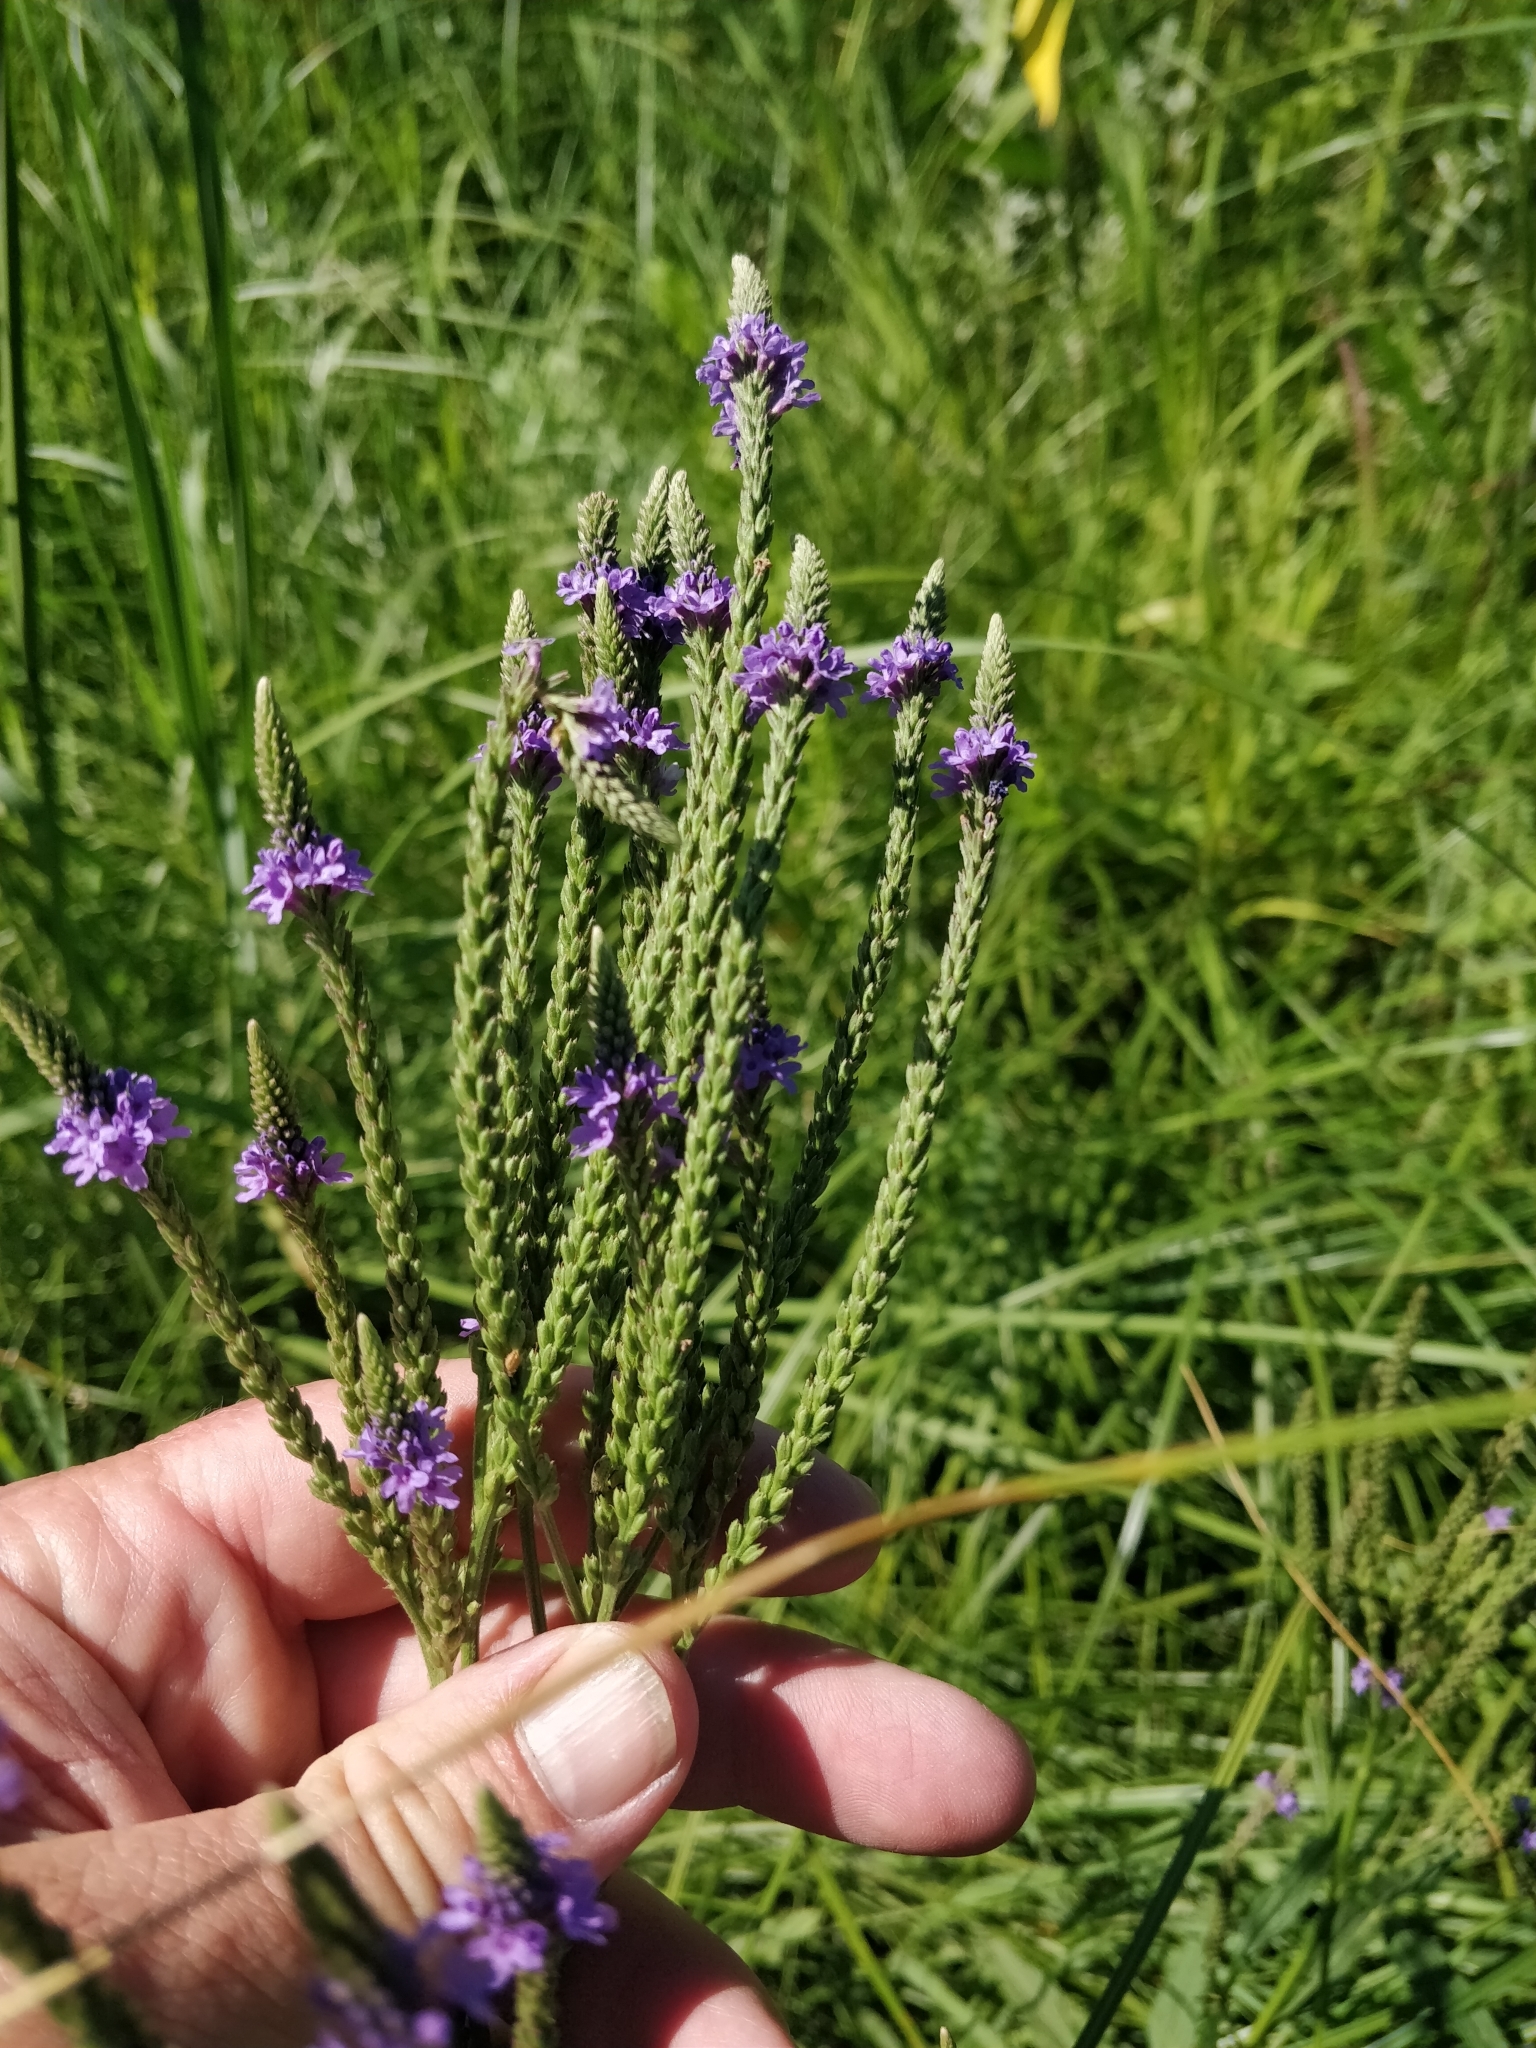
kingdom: Plantae
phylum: Tracheophyta
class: Magnoliopsida
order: Lamiales
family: Verbenaceae
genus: Verbena
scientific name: Verbena hastata
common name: American blue vervain
